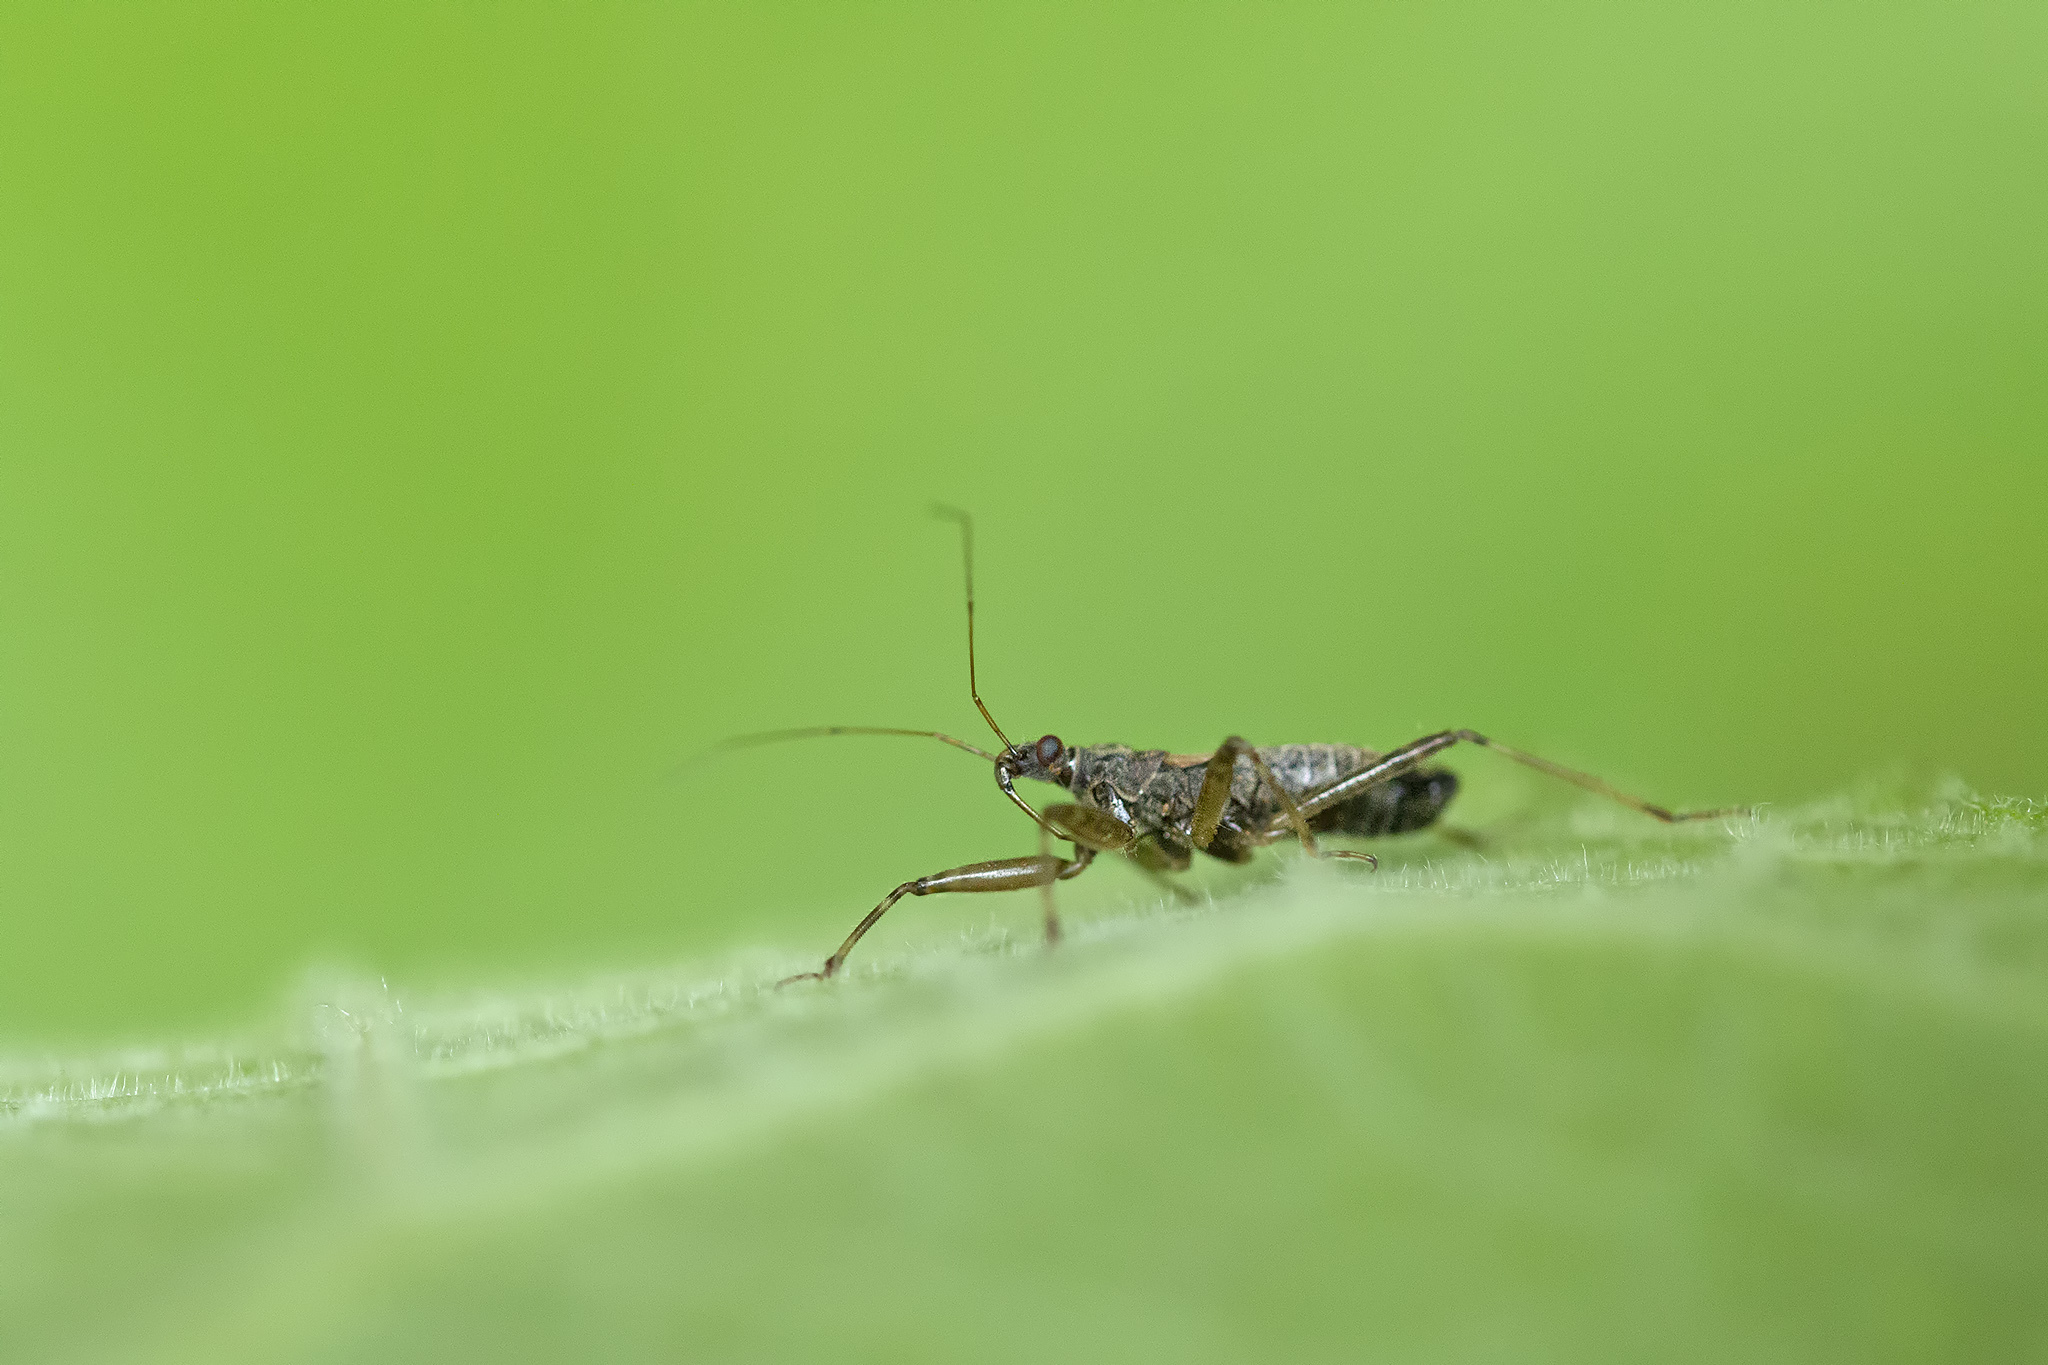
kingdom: Animalia
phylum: Arthropoda
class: Insecta
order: Hemiptera
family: Nabidae
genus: Himacerus
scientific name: Himacerus apterus
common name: Tree damsel bug
